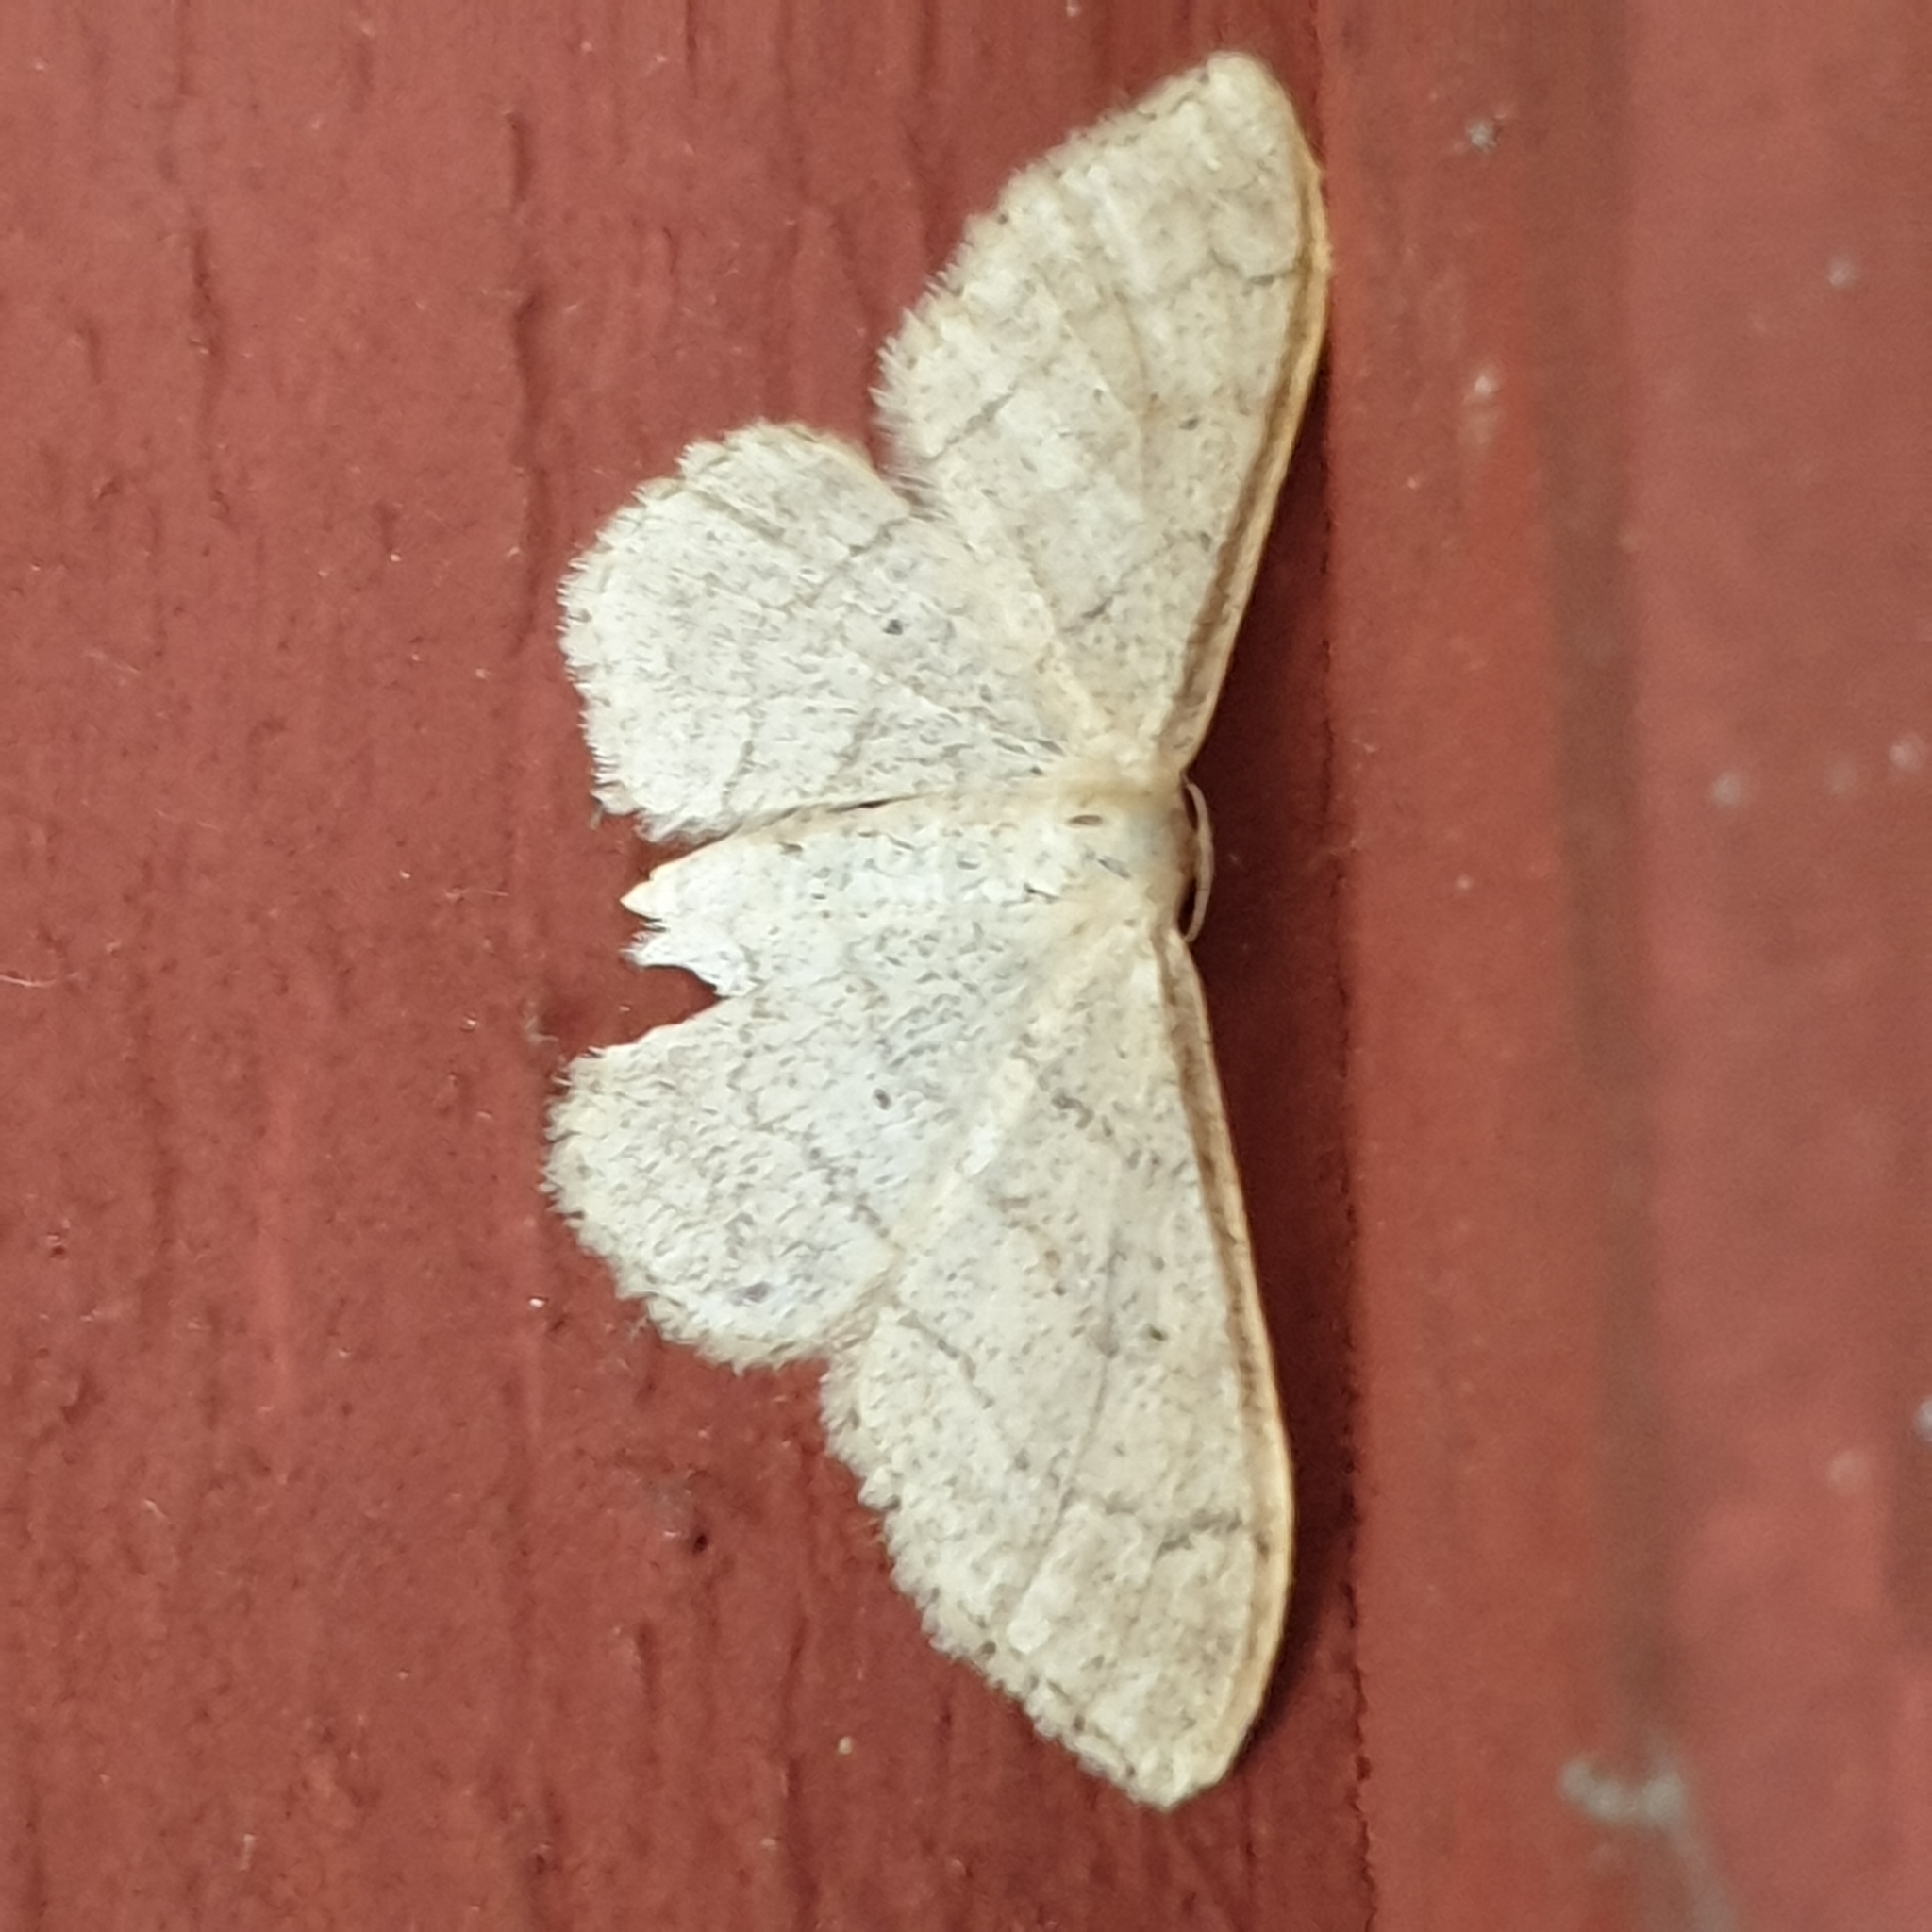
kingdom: Animalia
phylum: Arthropoda
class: Insecta
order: Lepidoptera
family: Geometridae
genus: Idaea
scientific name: Idaea aversata
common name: Riband wave
